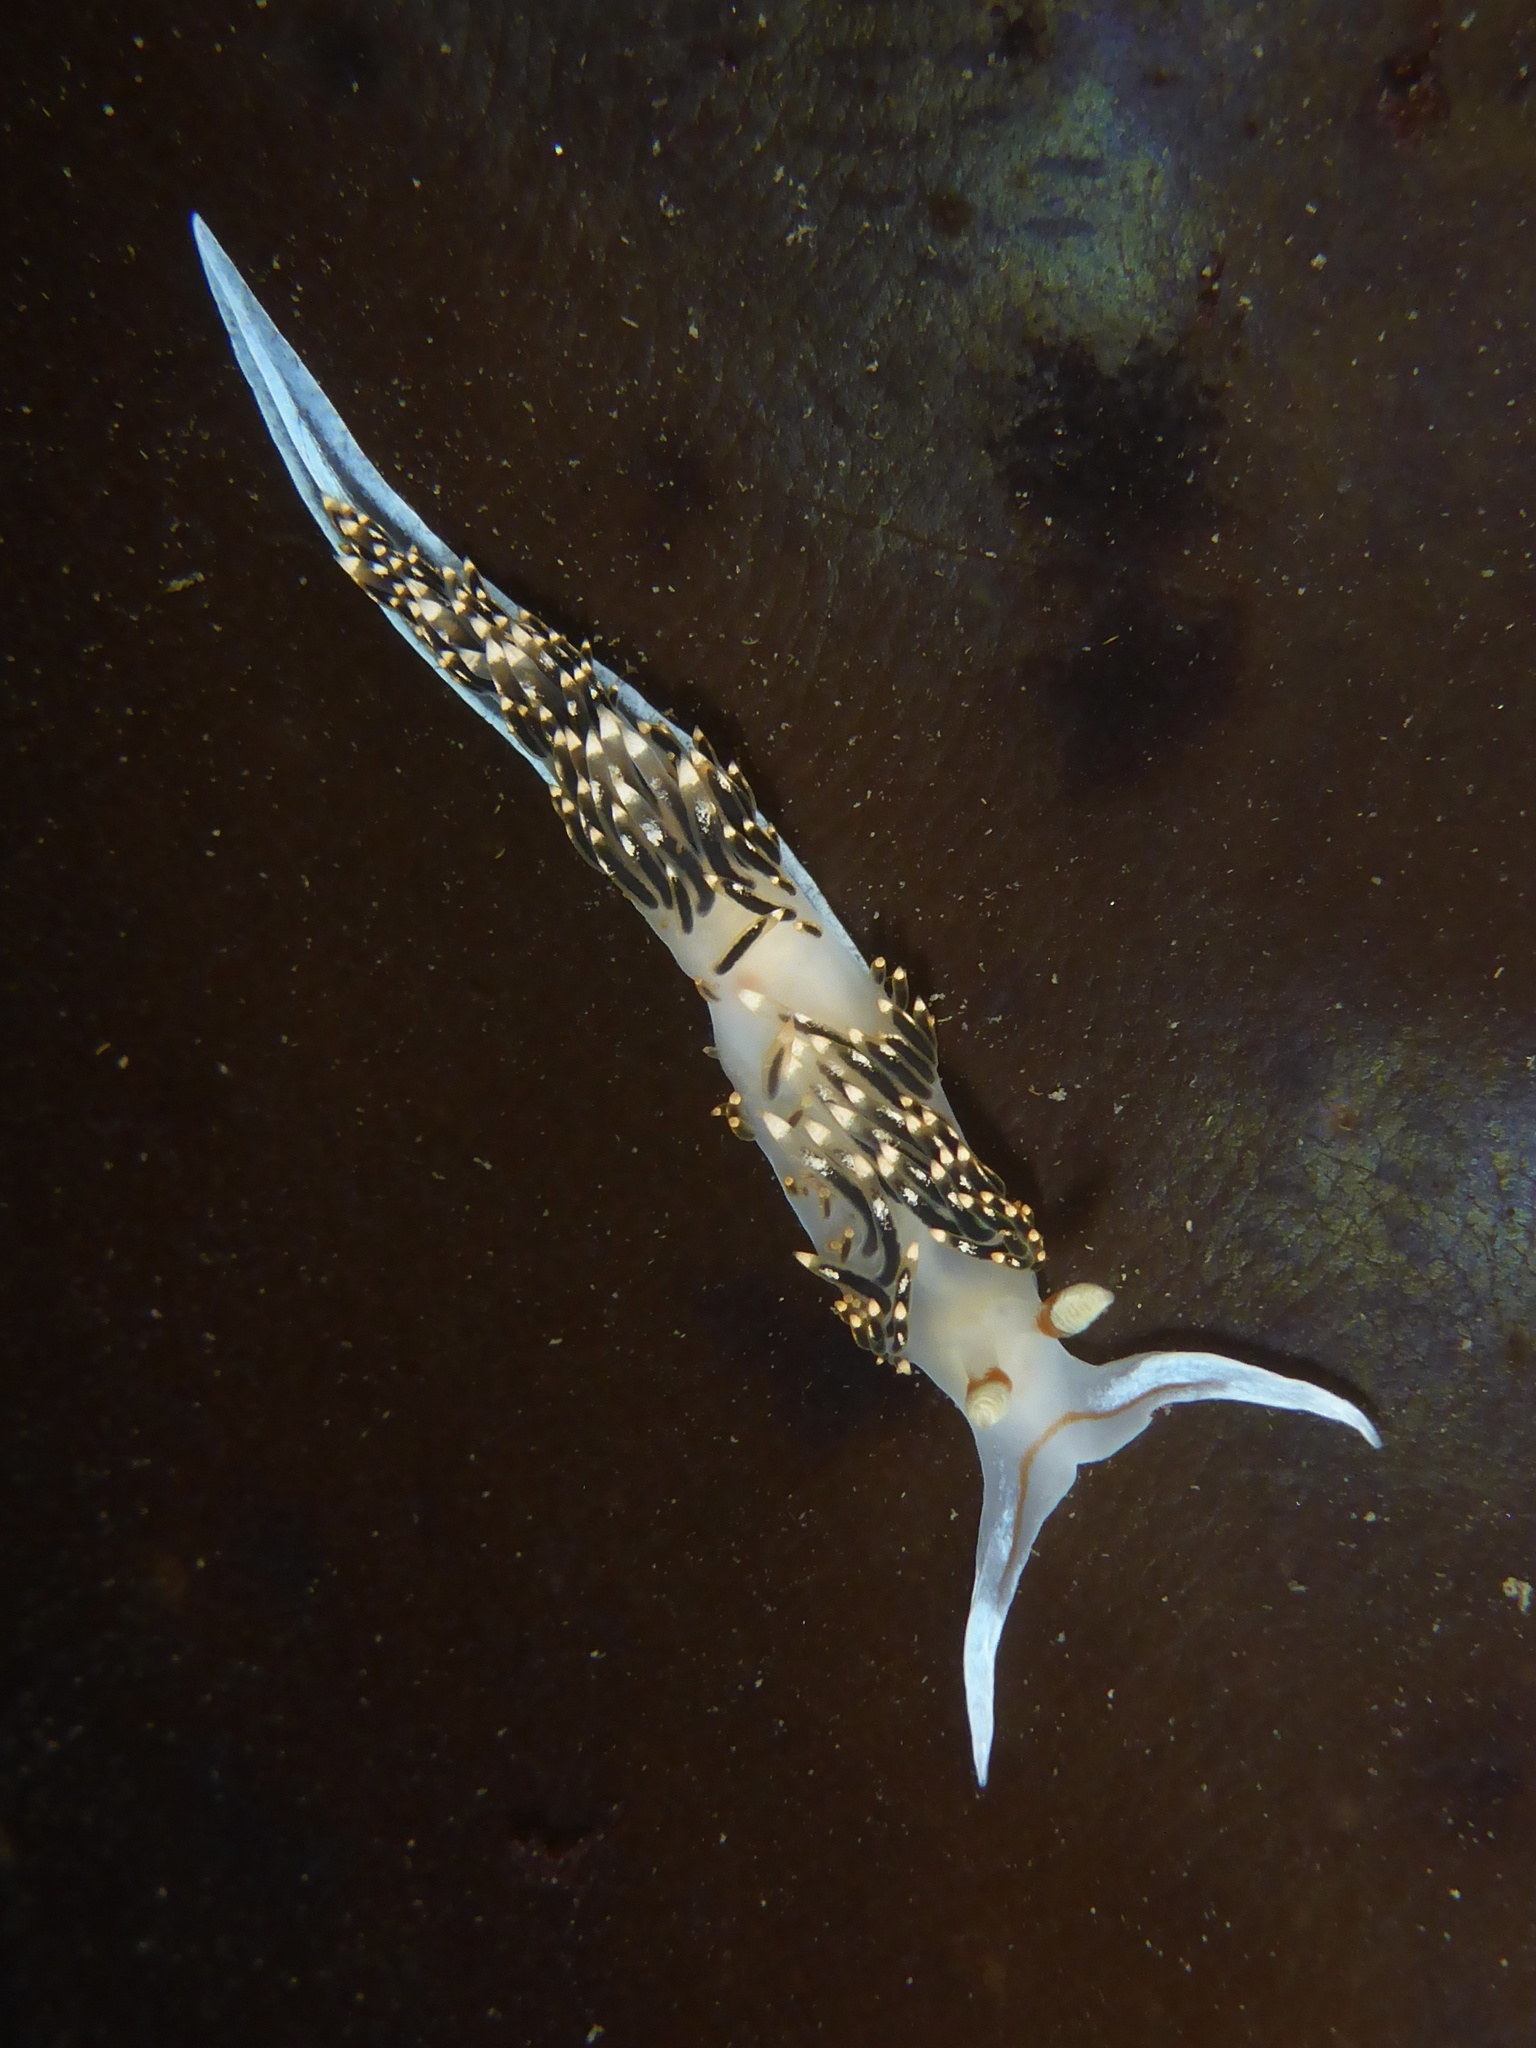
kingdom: Animalia
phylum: Mollusca
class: Gastropoda
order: Nudibranchia
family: Facelinidae
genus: Phidiana
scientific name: Phidiana hiltoni
